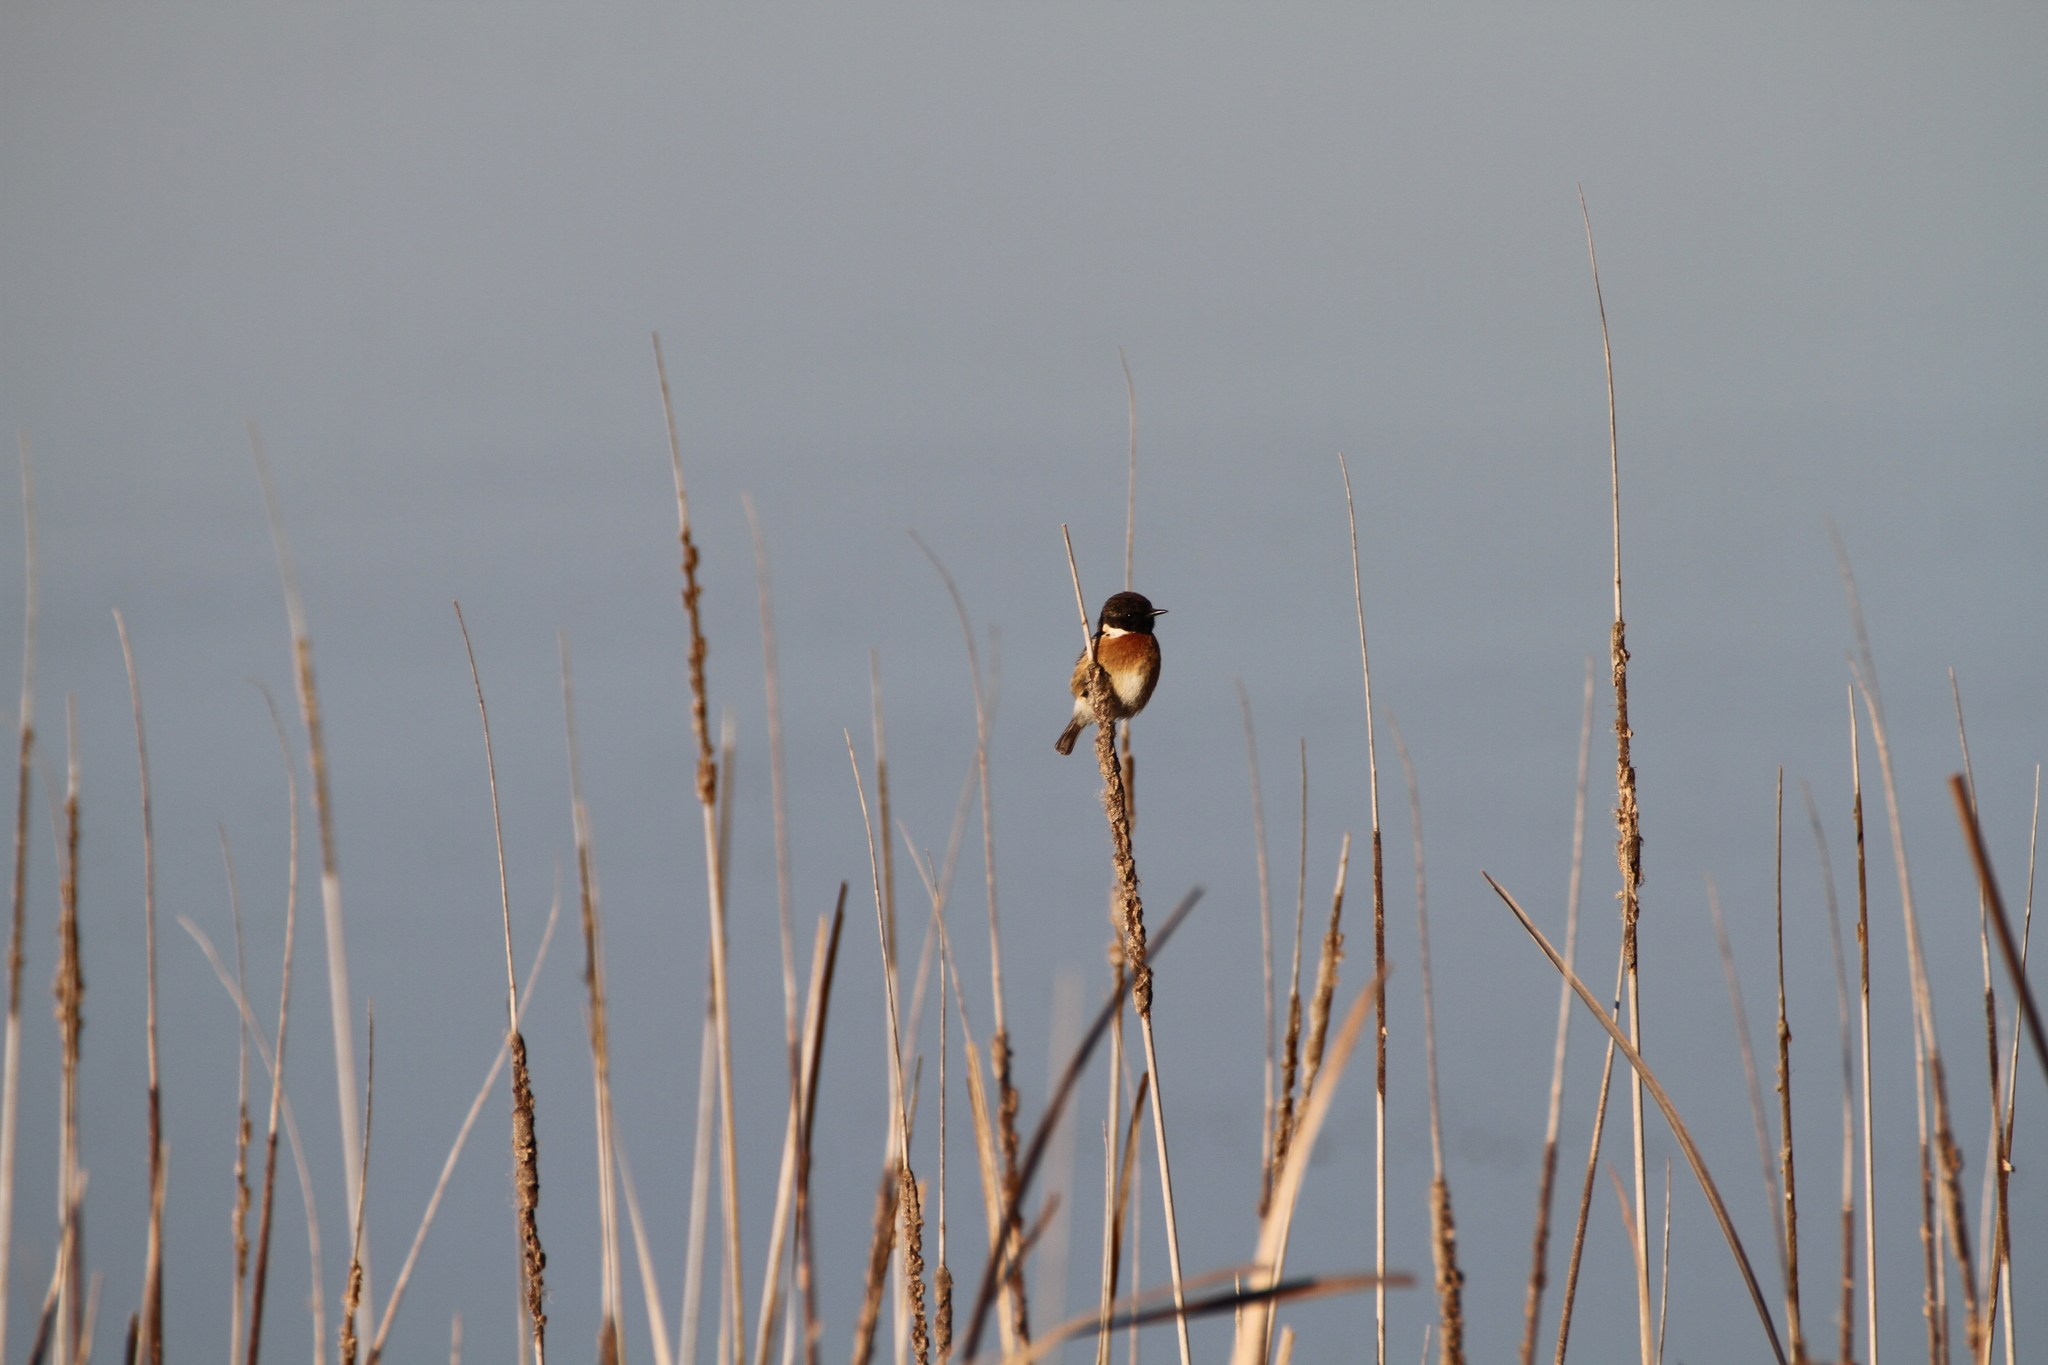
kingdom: Animalia
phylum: Chordata
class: Aves
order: Passeriformes
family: Muscicapidae
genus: Saxicola
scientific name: Saxicola rubicola
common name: European stonechat
